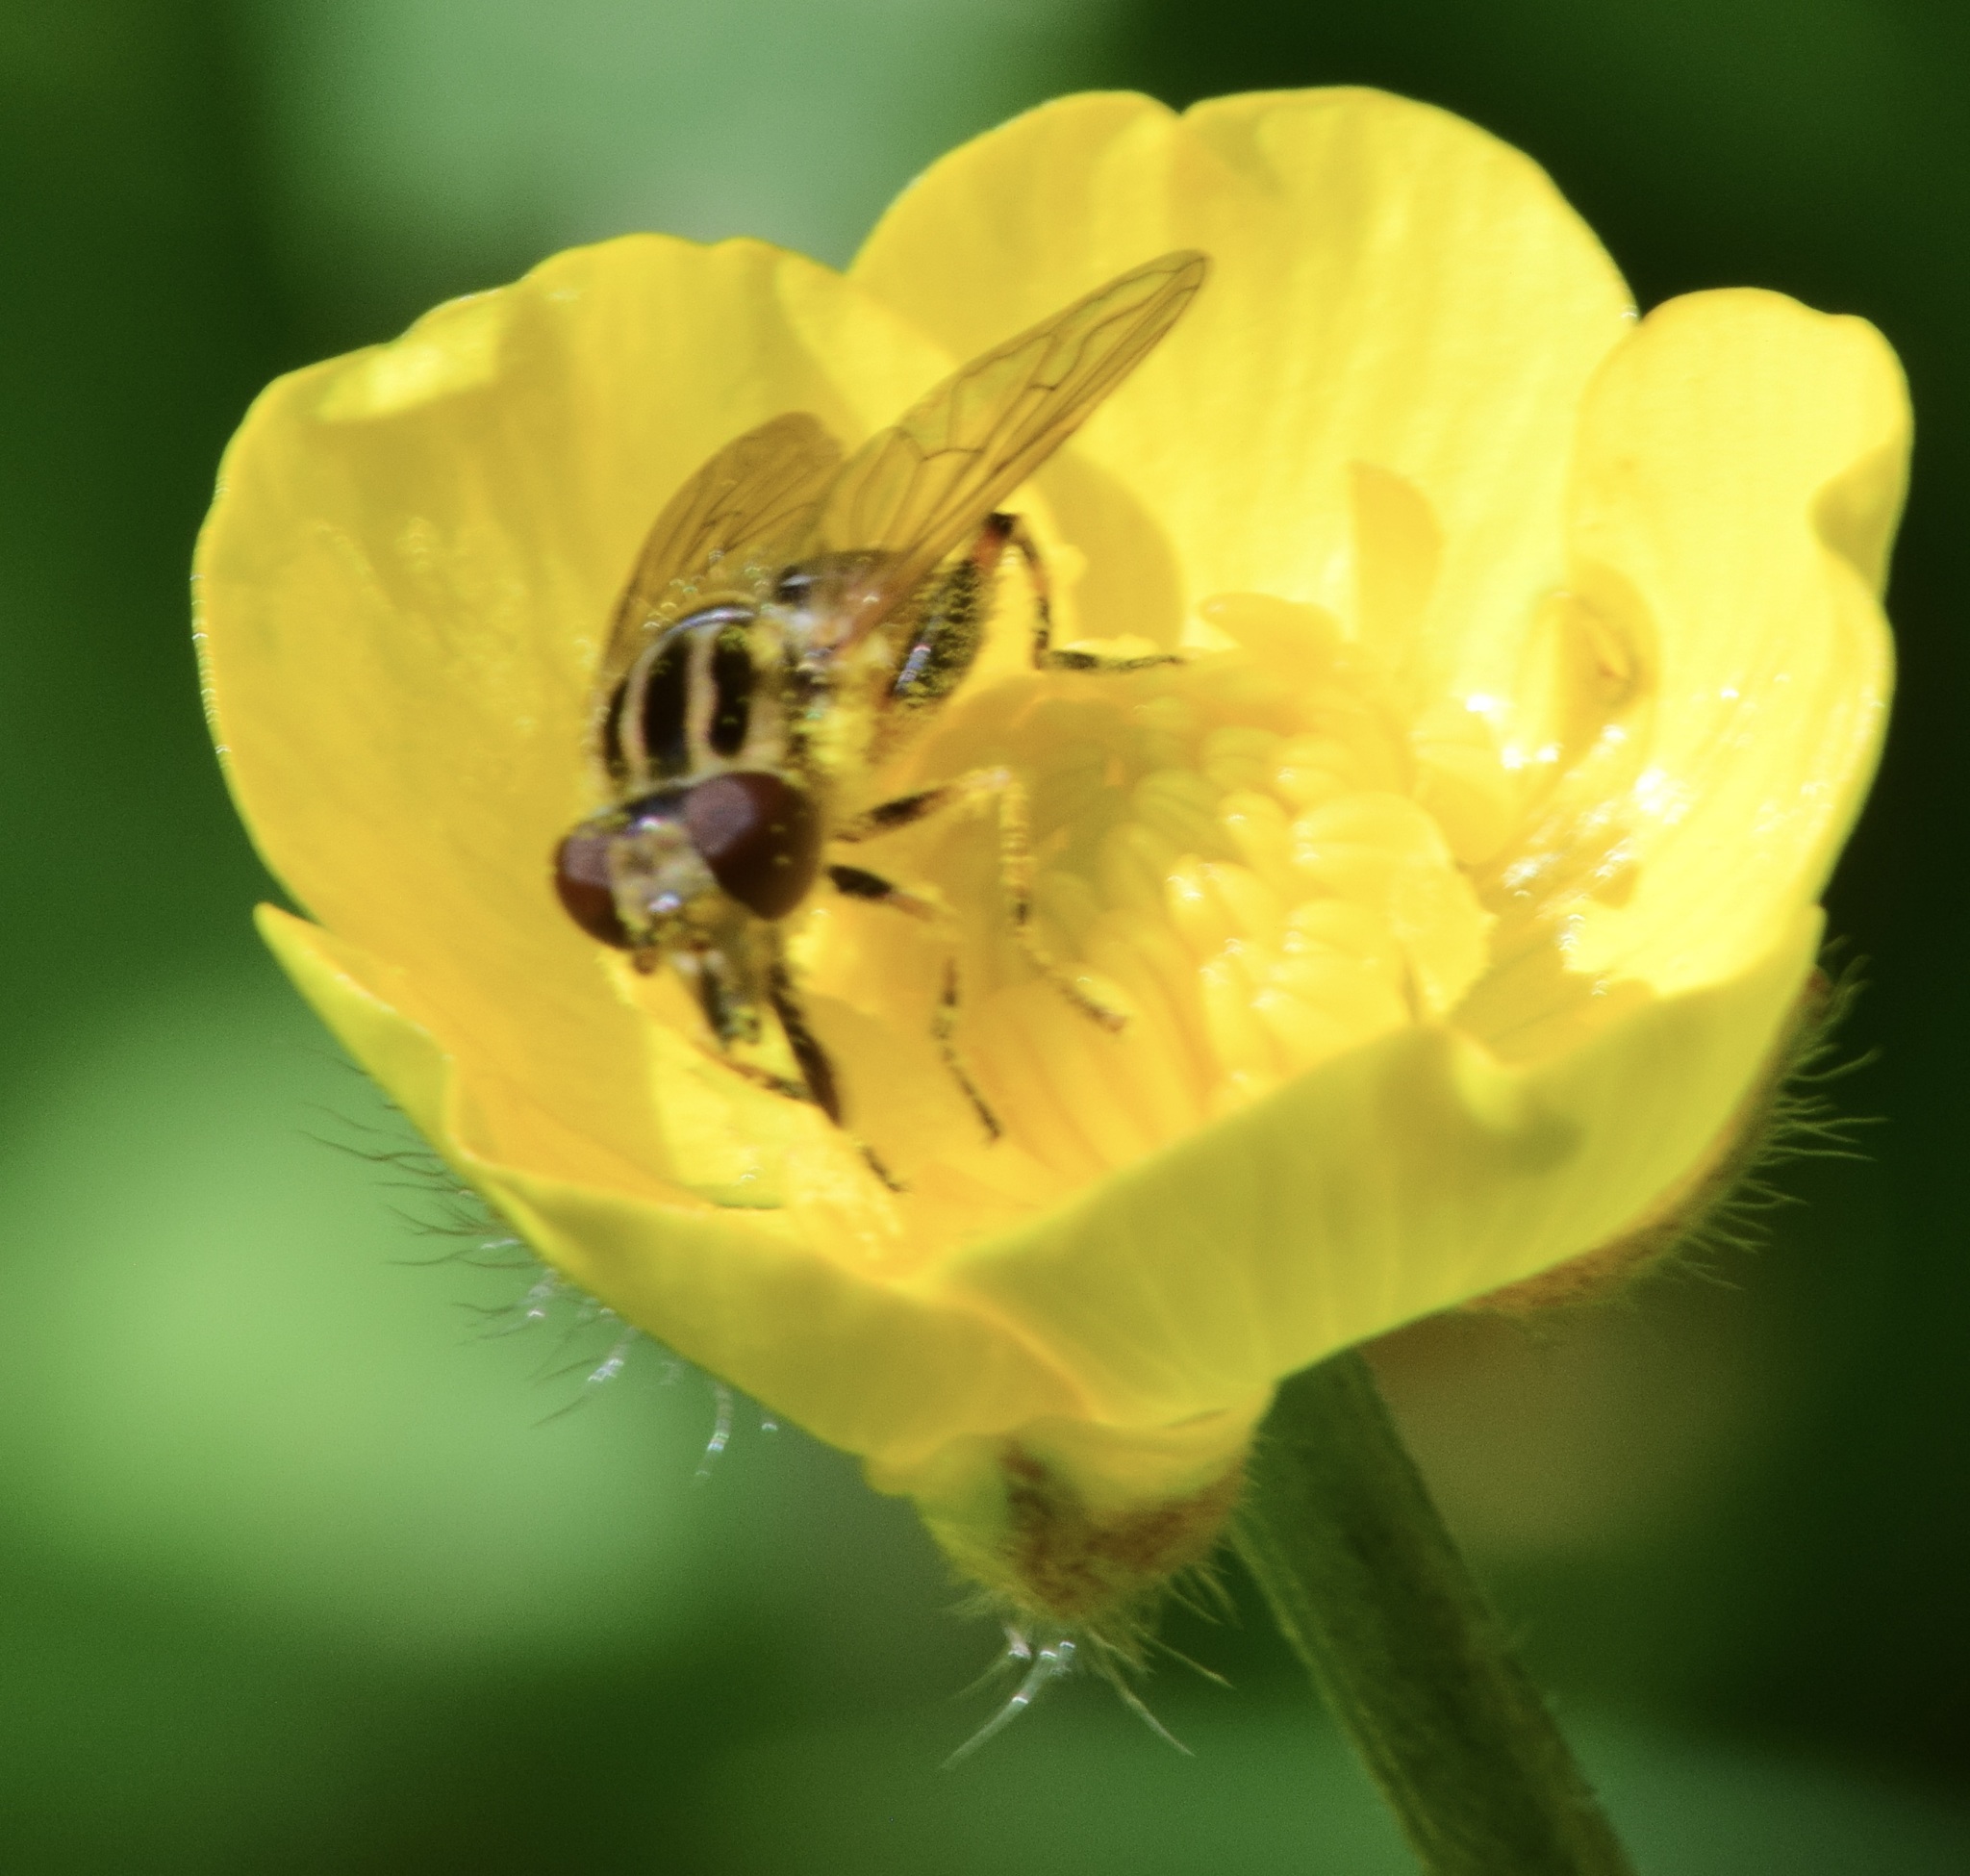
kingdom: Animalia
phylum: Arthropoda
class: Insecta
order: Diptera
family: Syrphidae
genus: Eurimyia
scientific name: Eurimyia stipatus
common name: Long-nosed swamp fly
